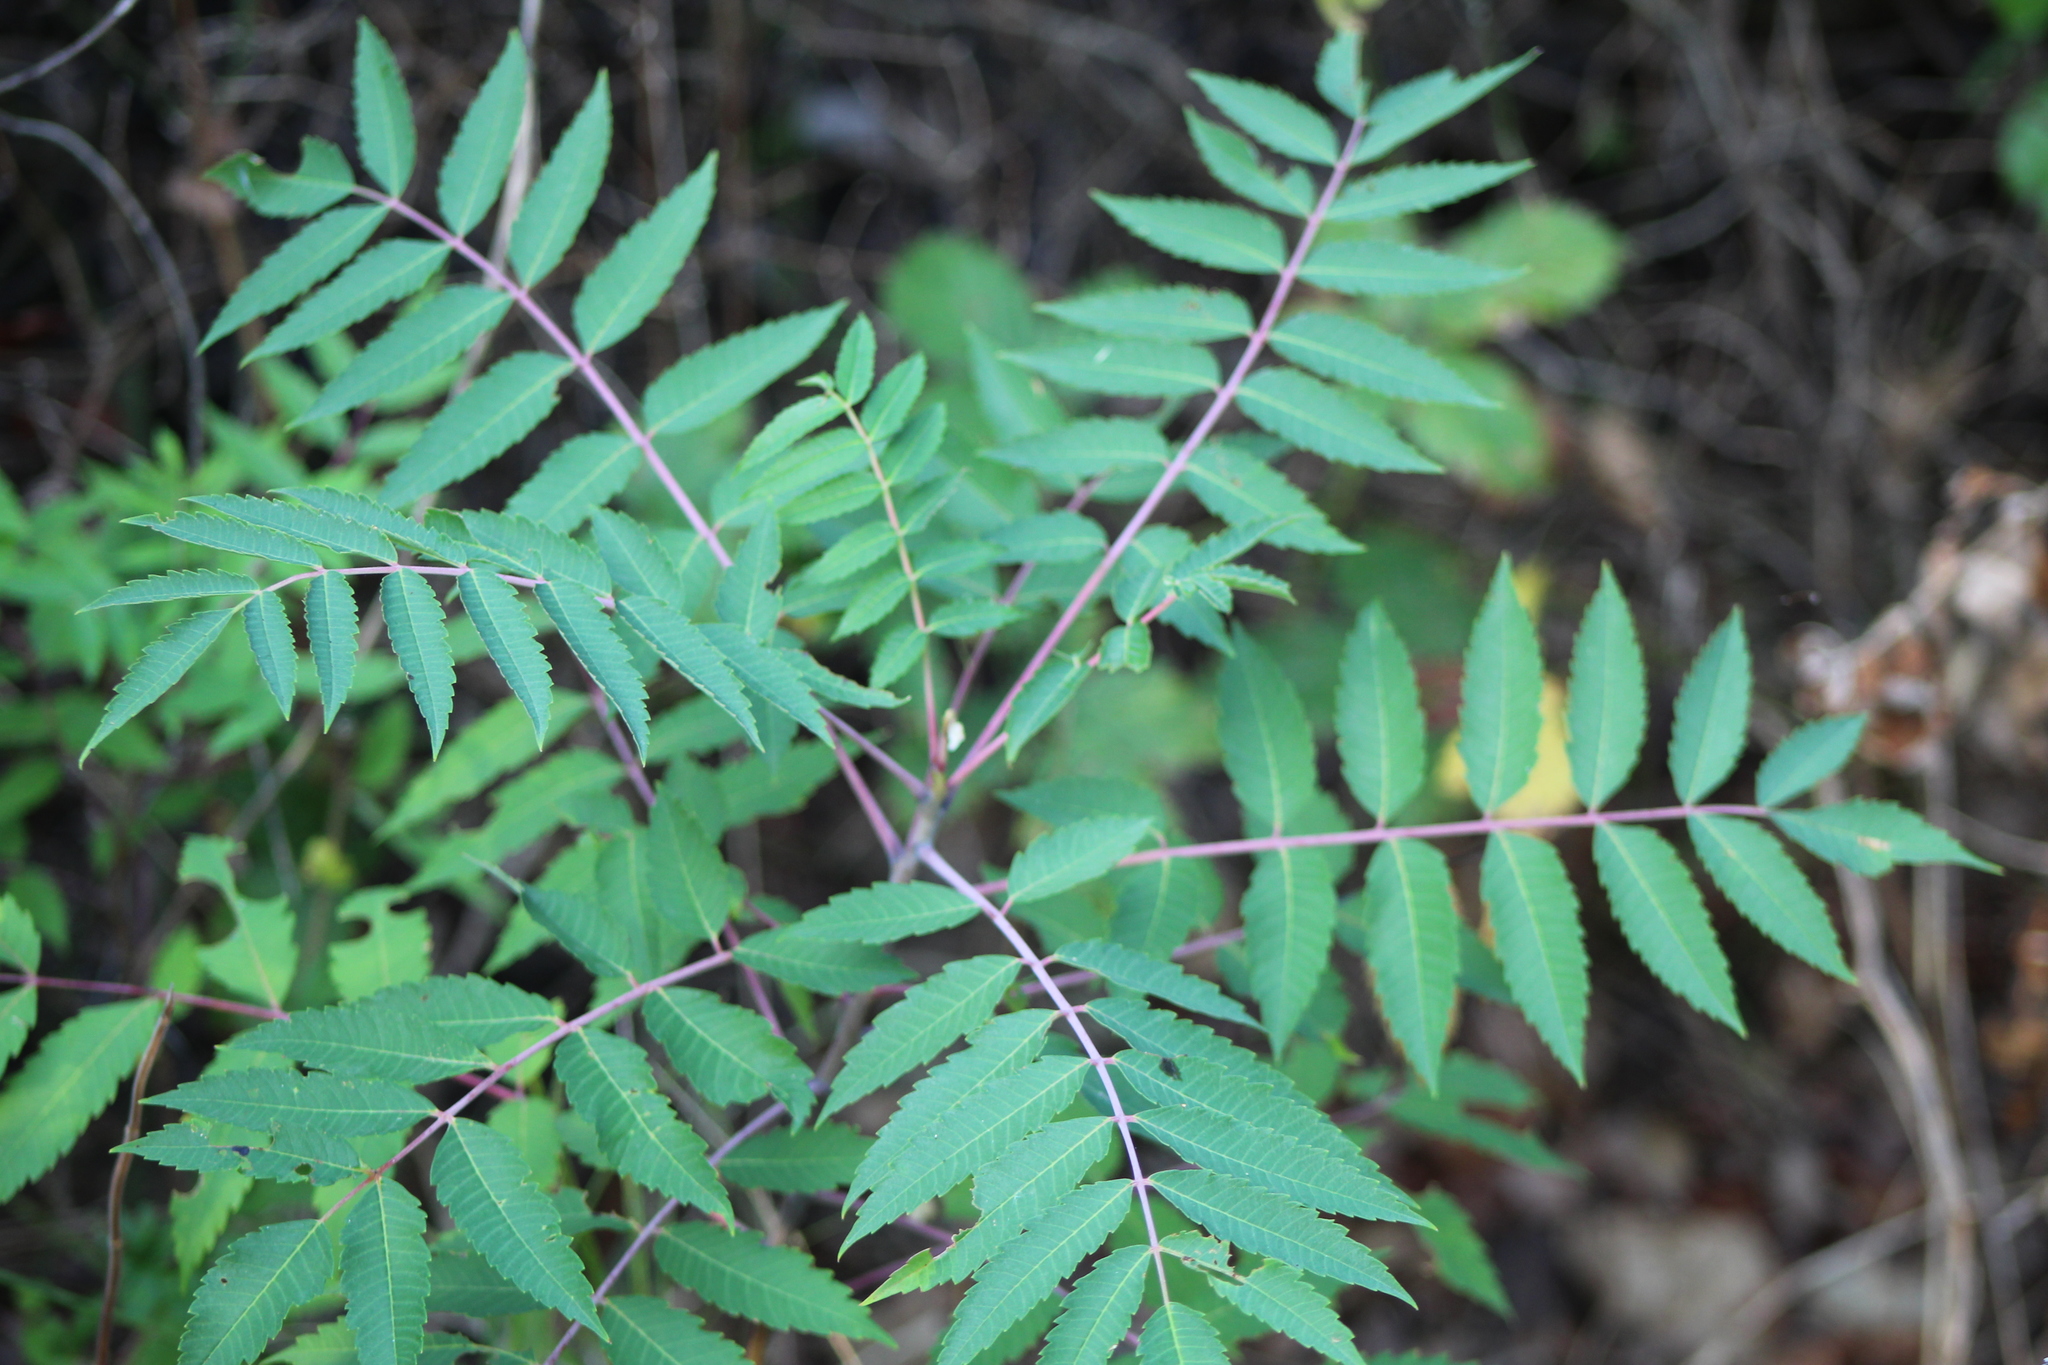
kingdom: Plantae
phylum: Tracheophyta
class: Magnoliopsida
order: Sapindales
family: Anacardiaceae
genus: Rhus
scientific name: Rhus glabra
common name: Scarlet sumac
